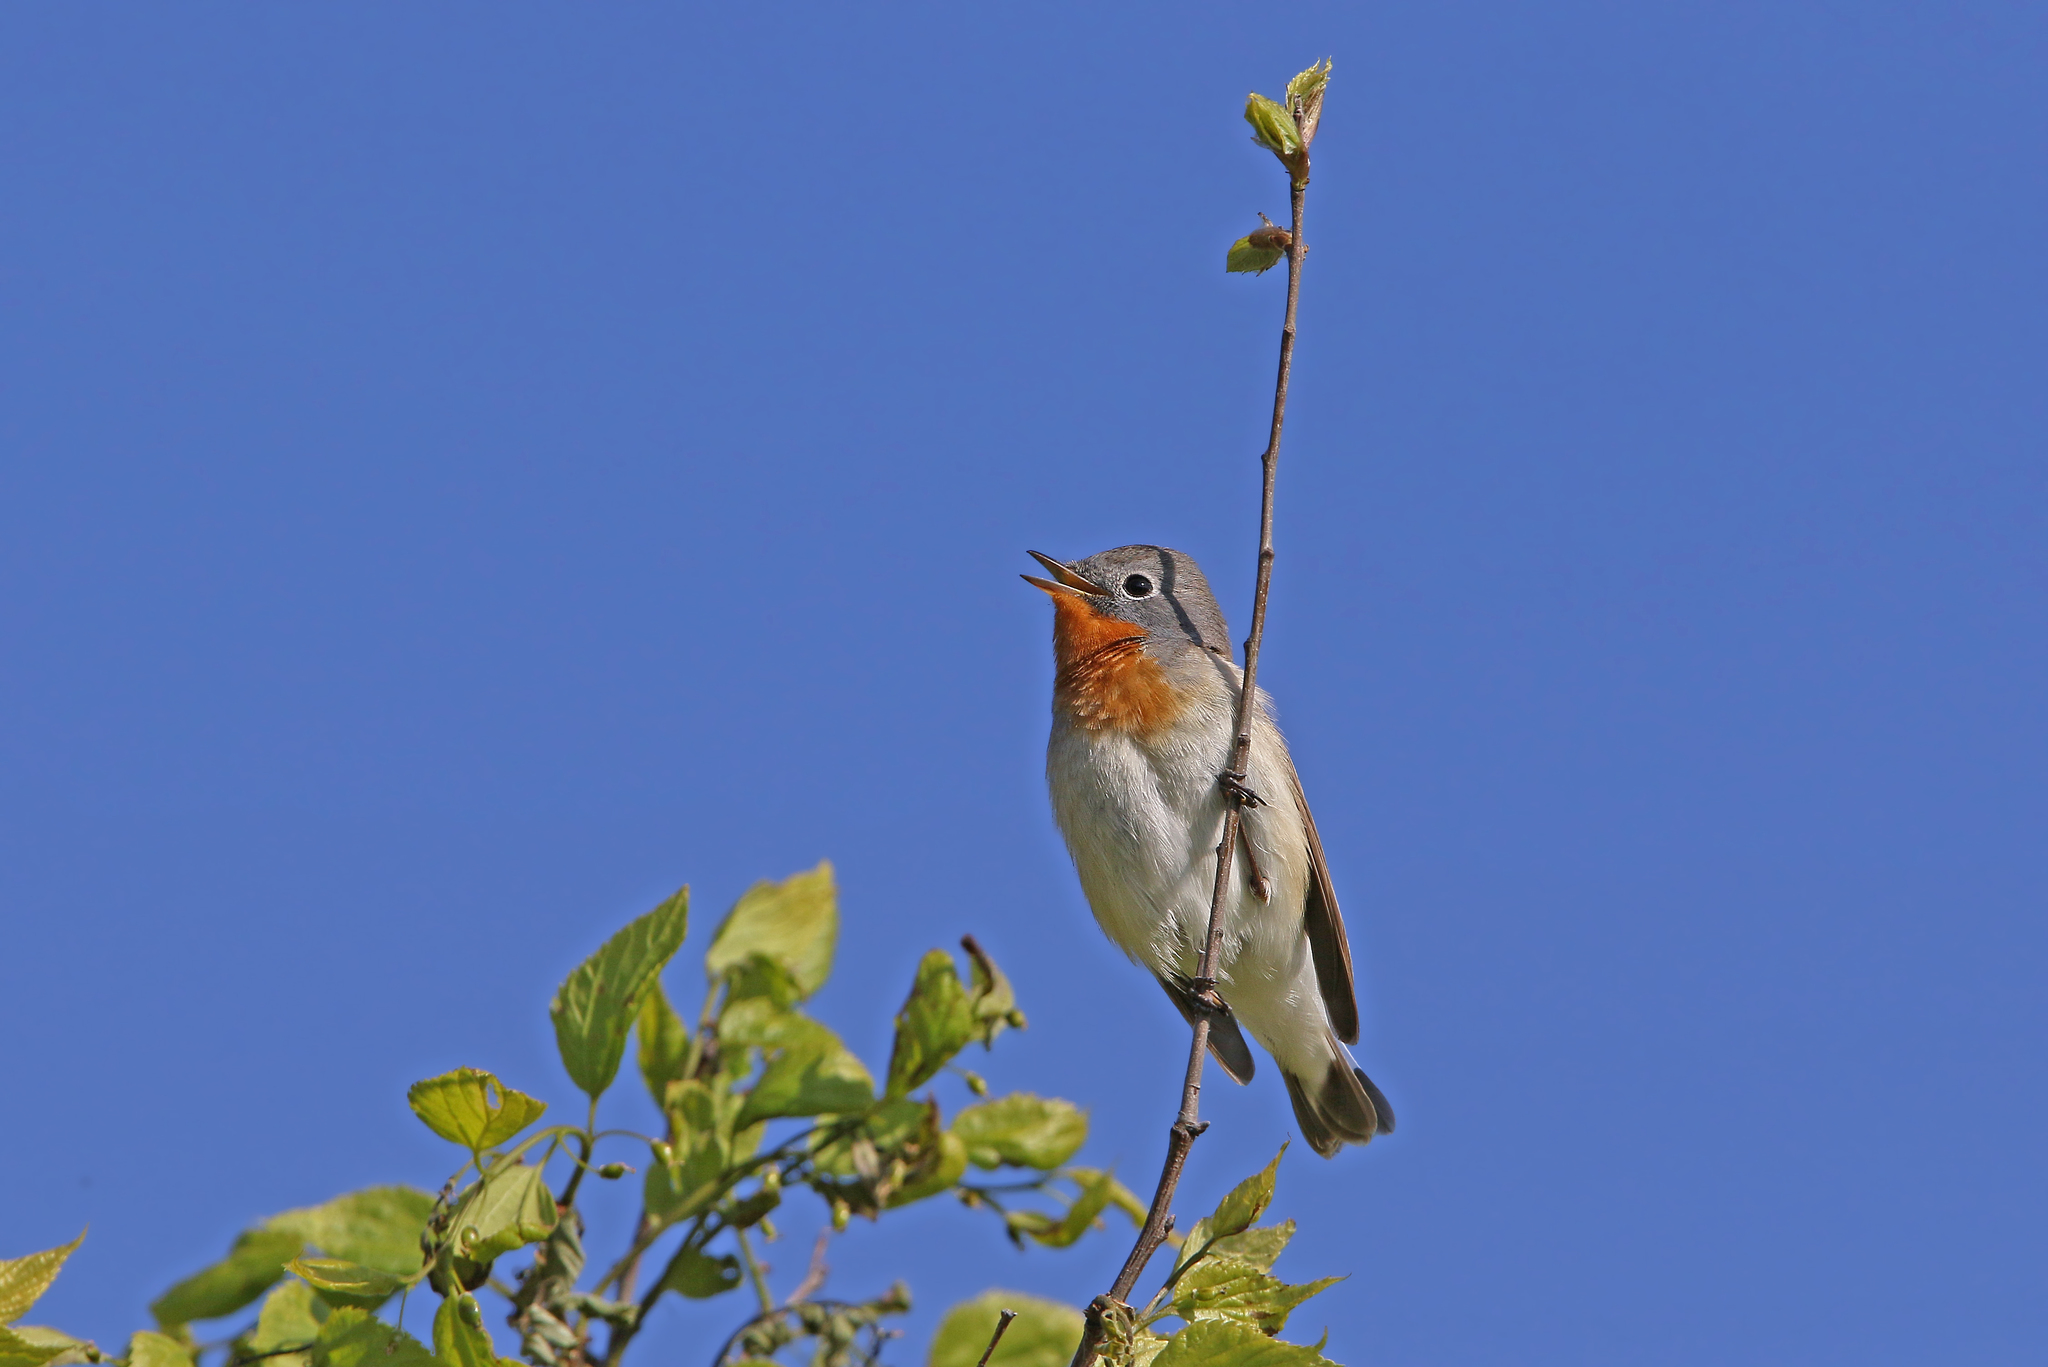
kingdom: Animalia
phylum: Chordata
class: Aves
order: Passeriformes
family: Muscicapidae
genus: Ficedula
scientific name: Ficedula parva
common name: Red-breasted flycatcher
